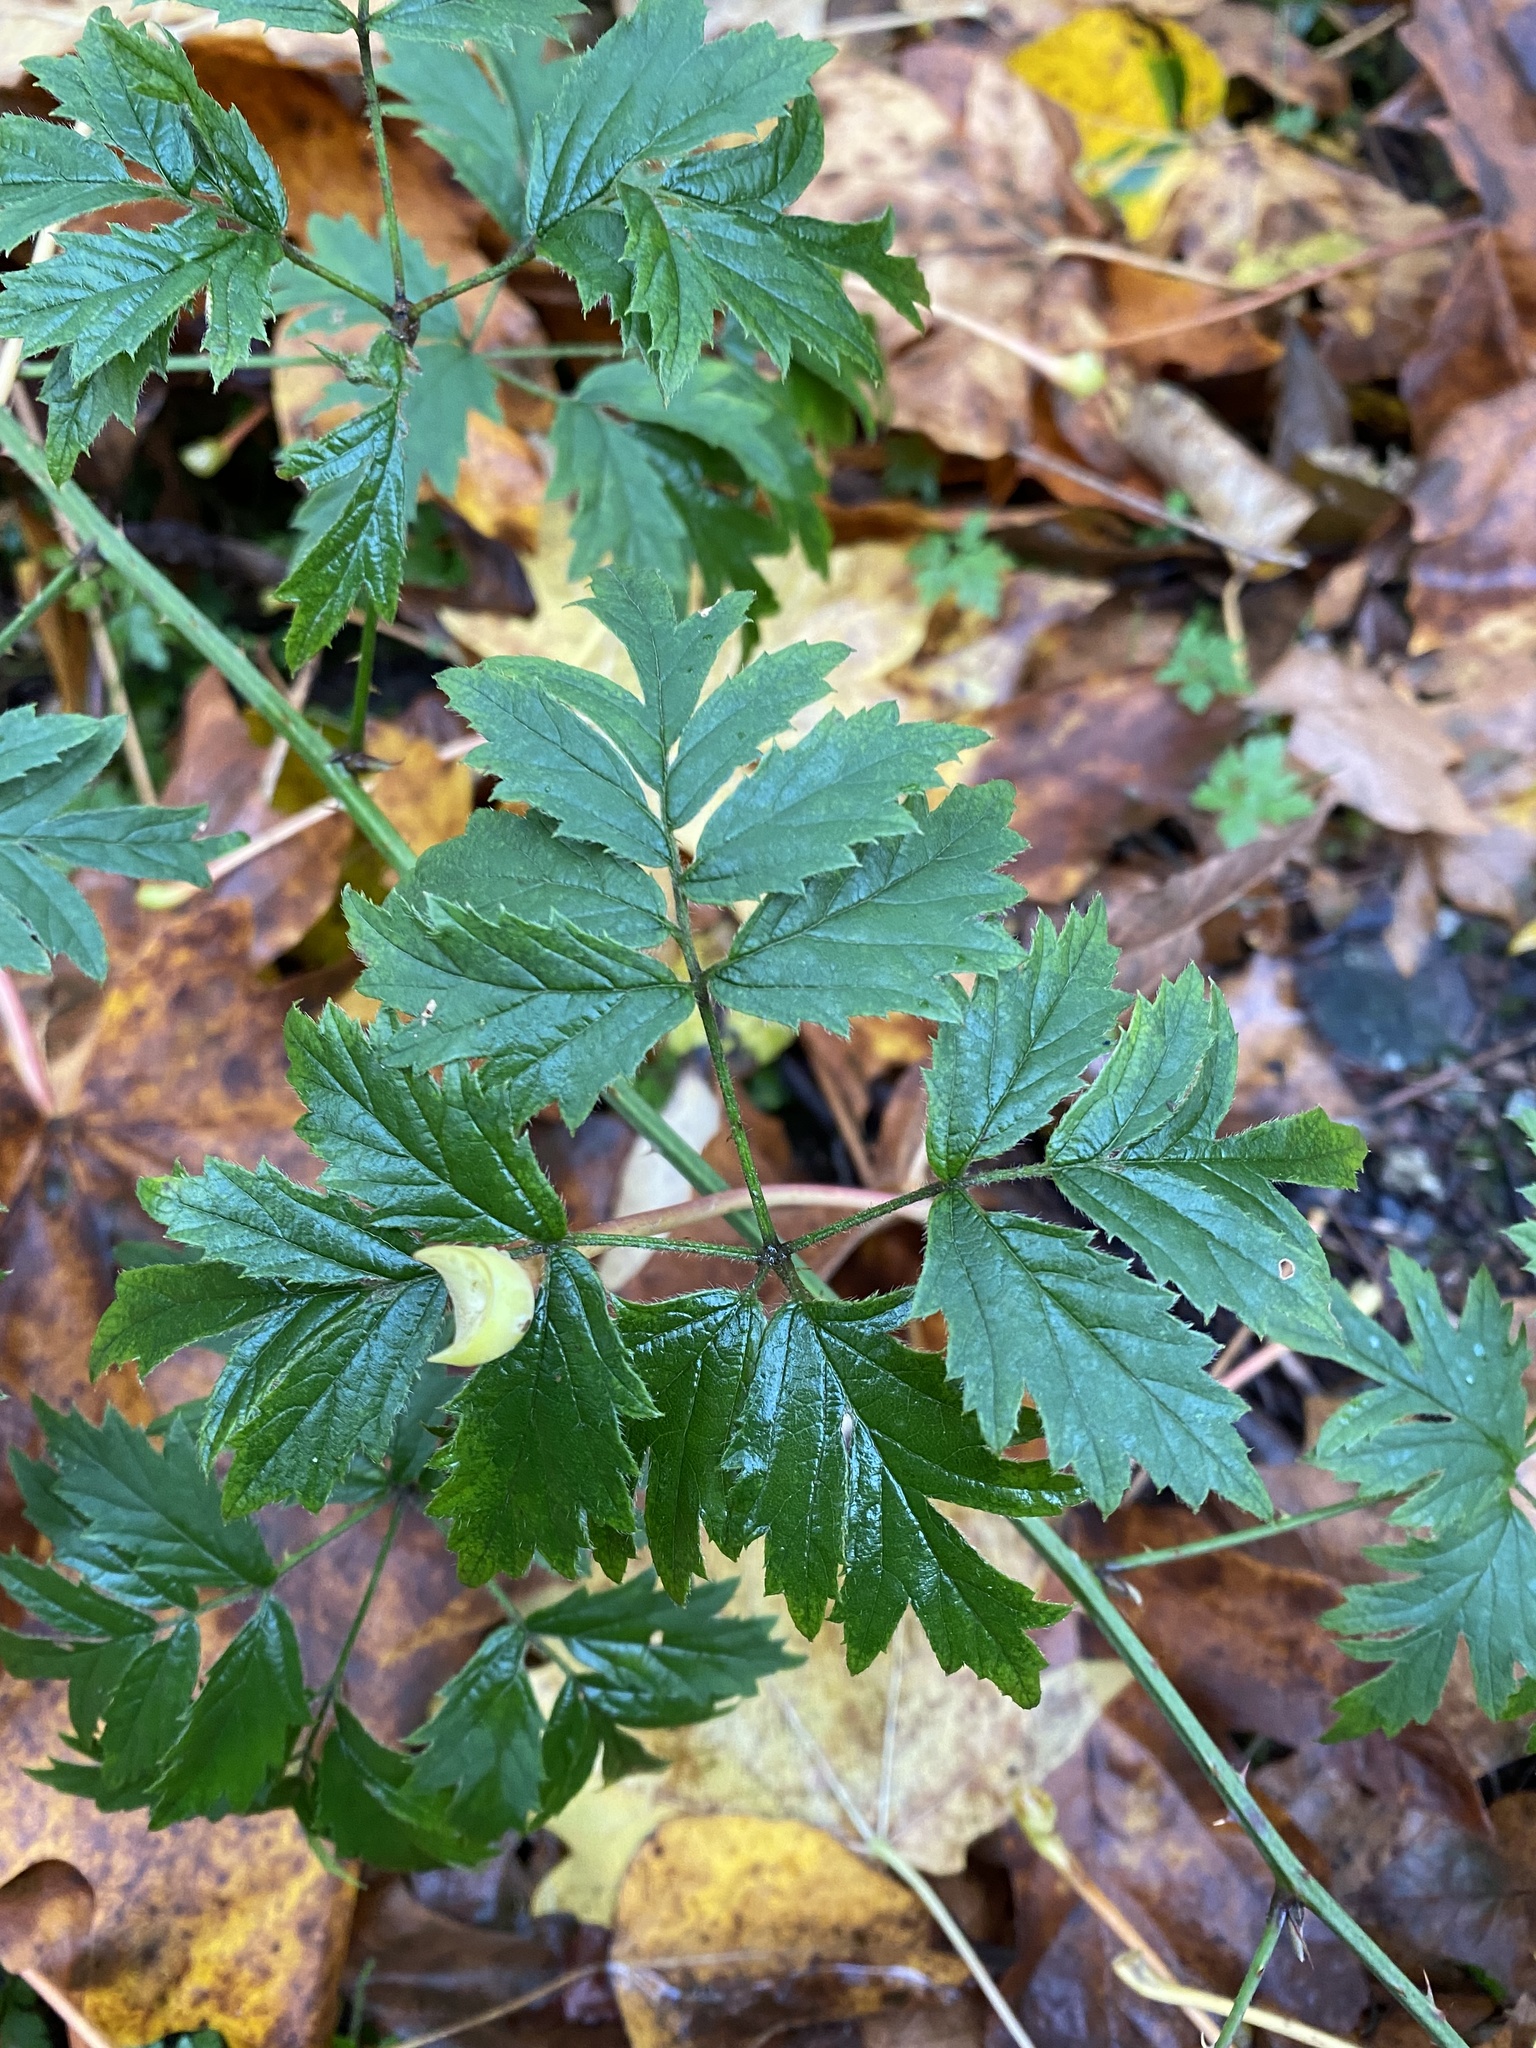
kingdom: Plantae
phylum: Tracheophyta
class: Magnoliopsida
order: Rosales
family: Rosaceae
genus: Rubus
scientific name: Rubus laciniatus
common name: Evergreen blackberry
